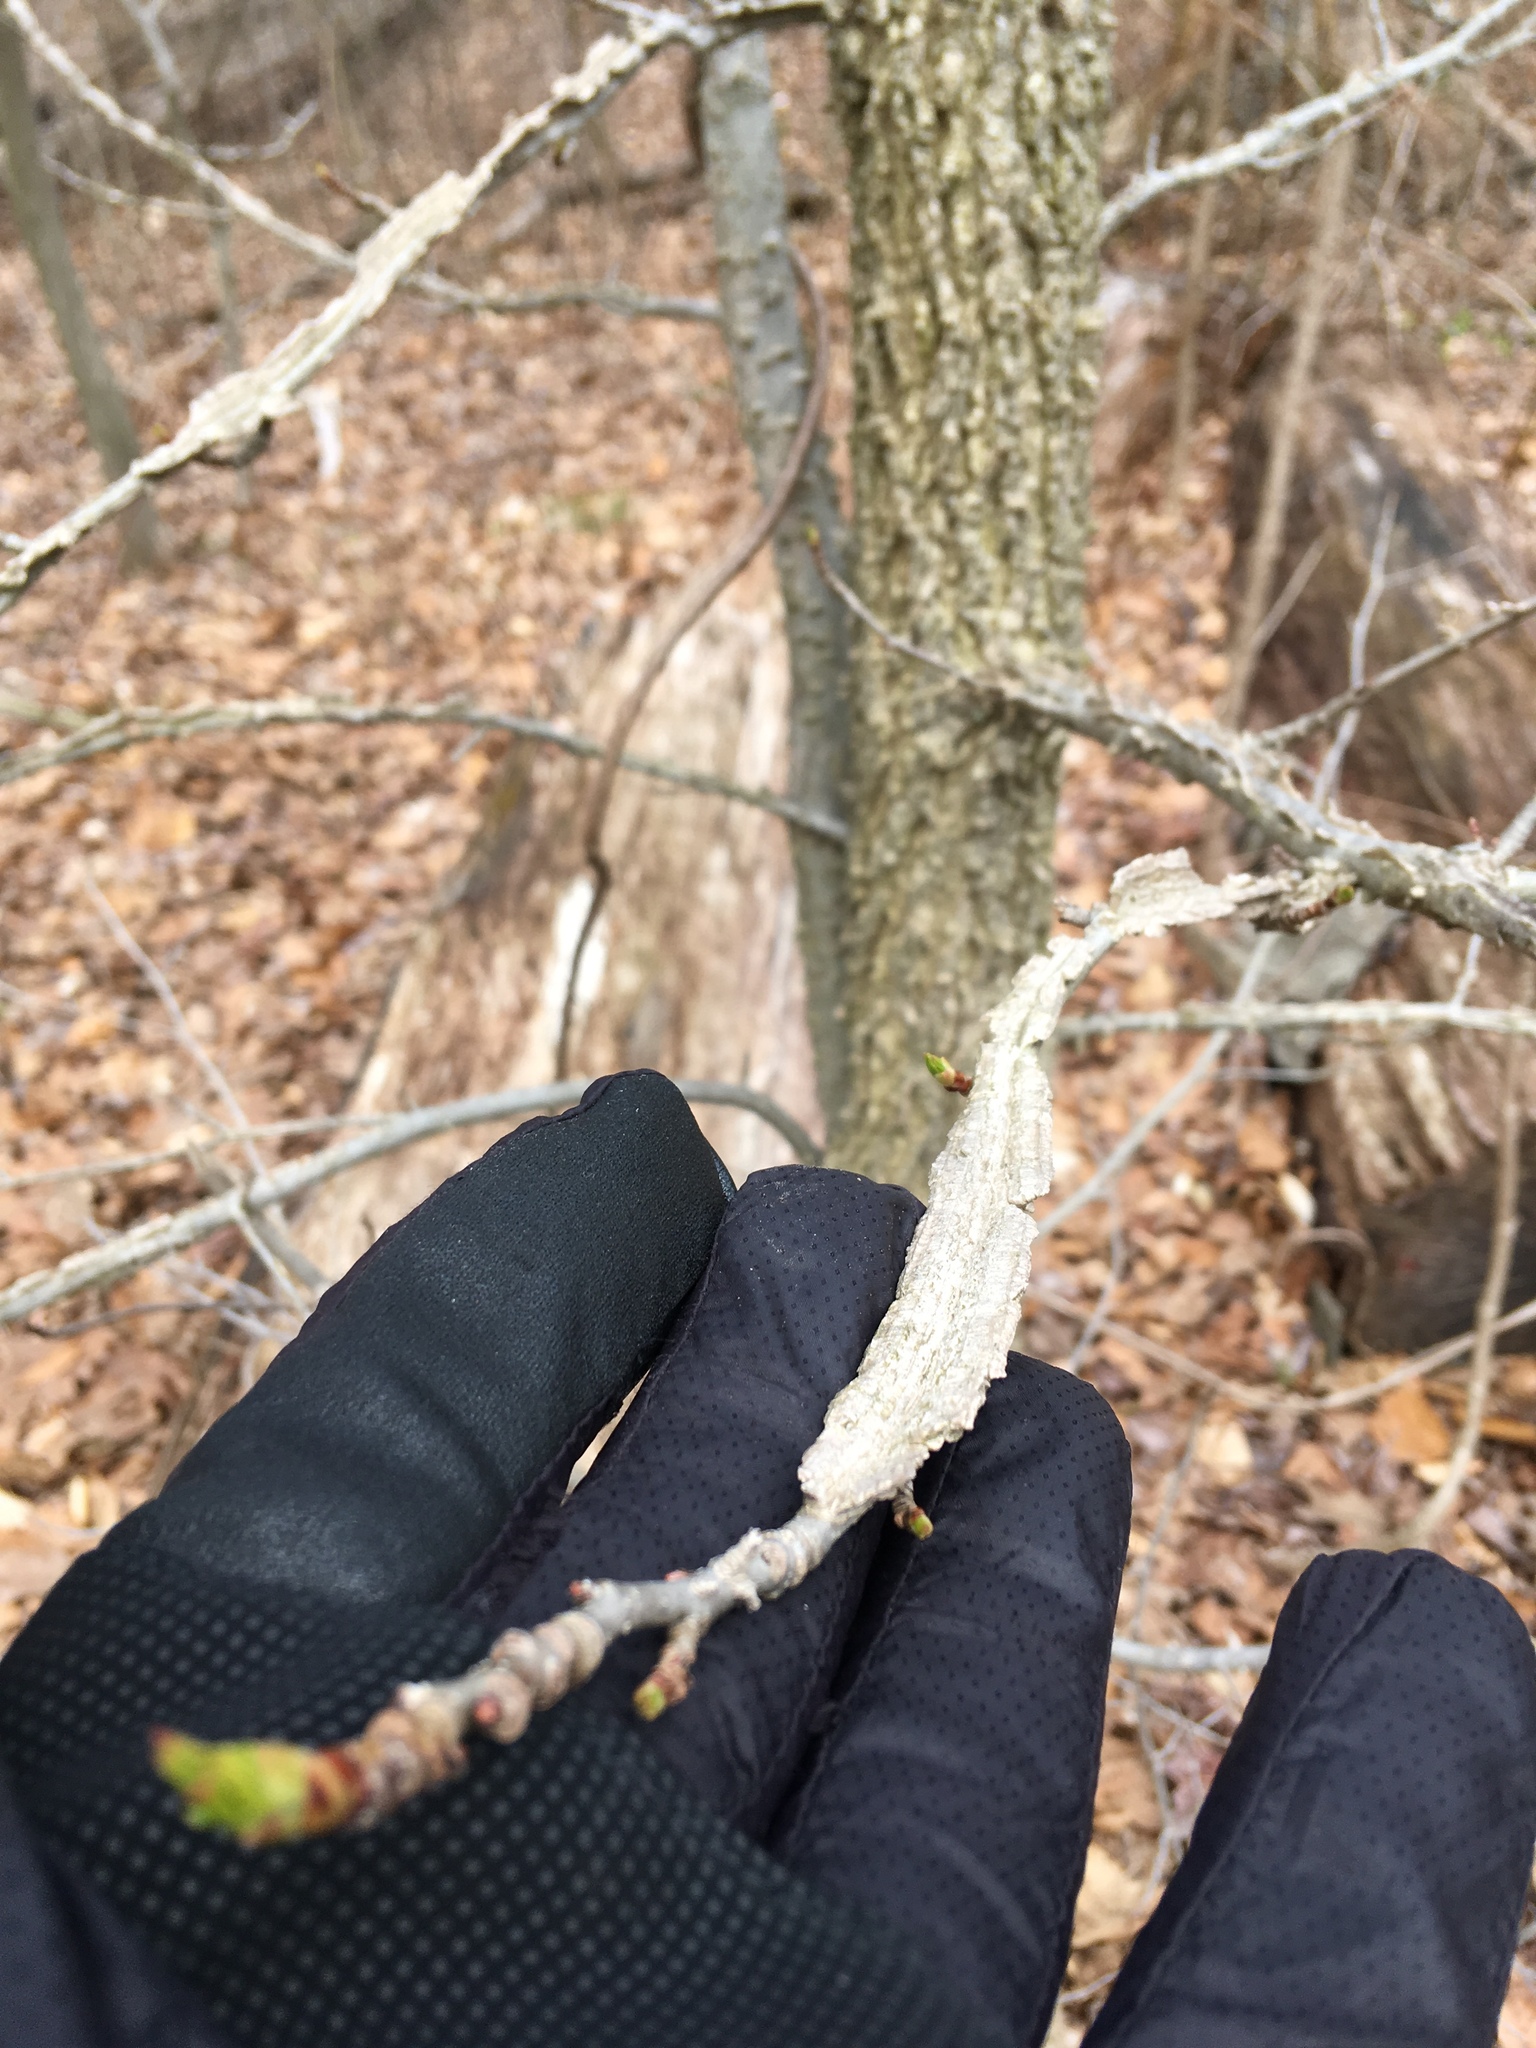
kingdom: Plantae
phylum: Tracheophyta
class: Magnoliopsida
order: Saxifragales
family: Altingiaceae
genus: Liquidambar
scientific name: Liquidambar styraciflua
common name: Sweet gum
